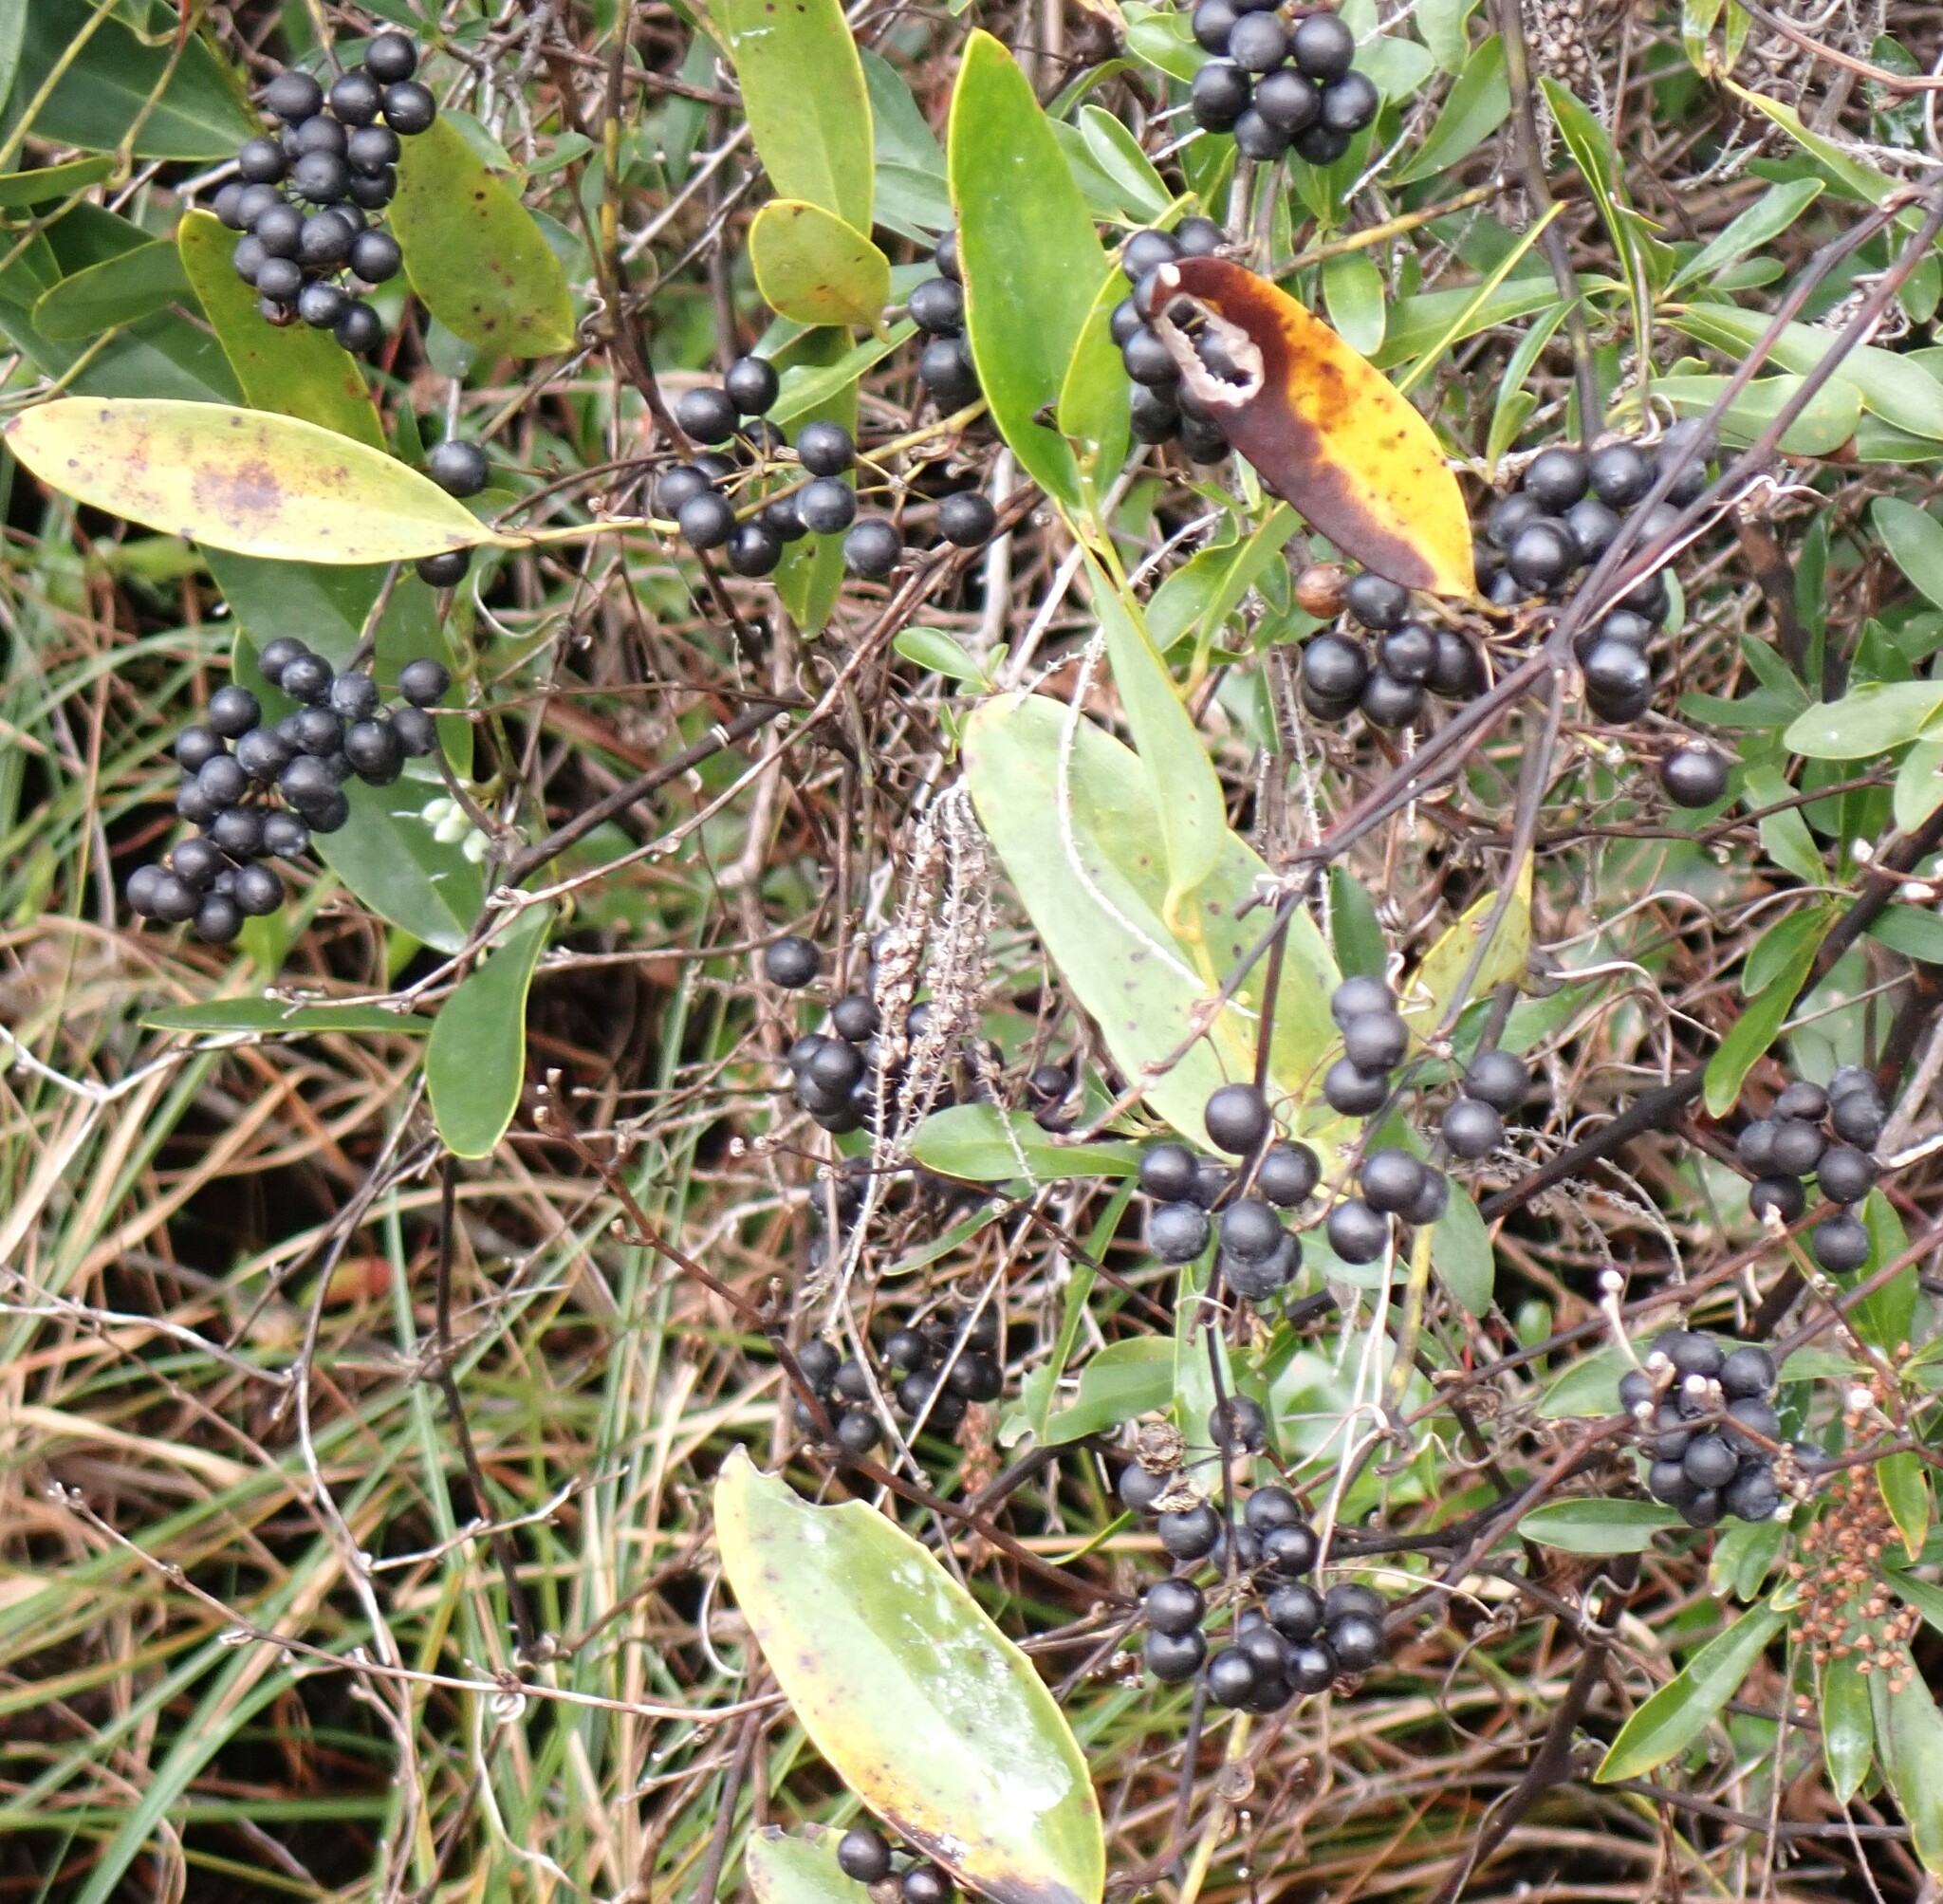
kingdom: Plantae
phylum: Tracheophyta
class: Liliopsida
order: Liliales
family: Smilacaceae
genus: Smilax
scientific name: Smilax laurifolia
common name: Bamboovine
